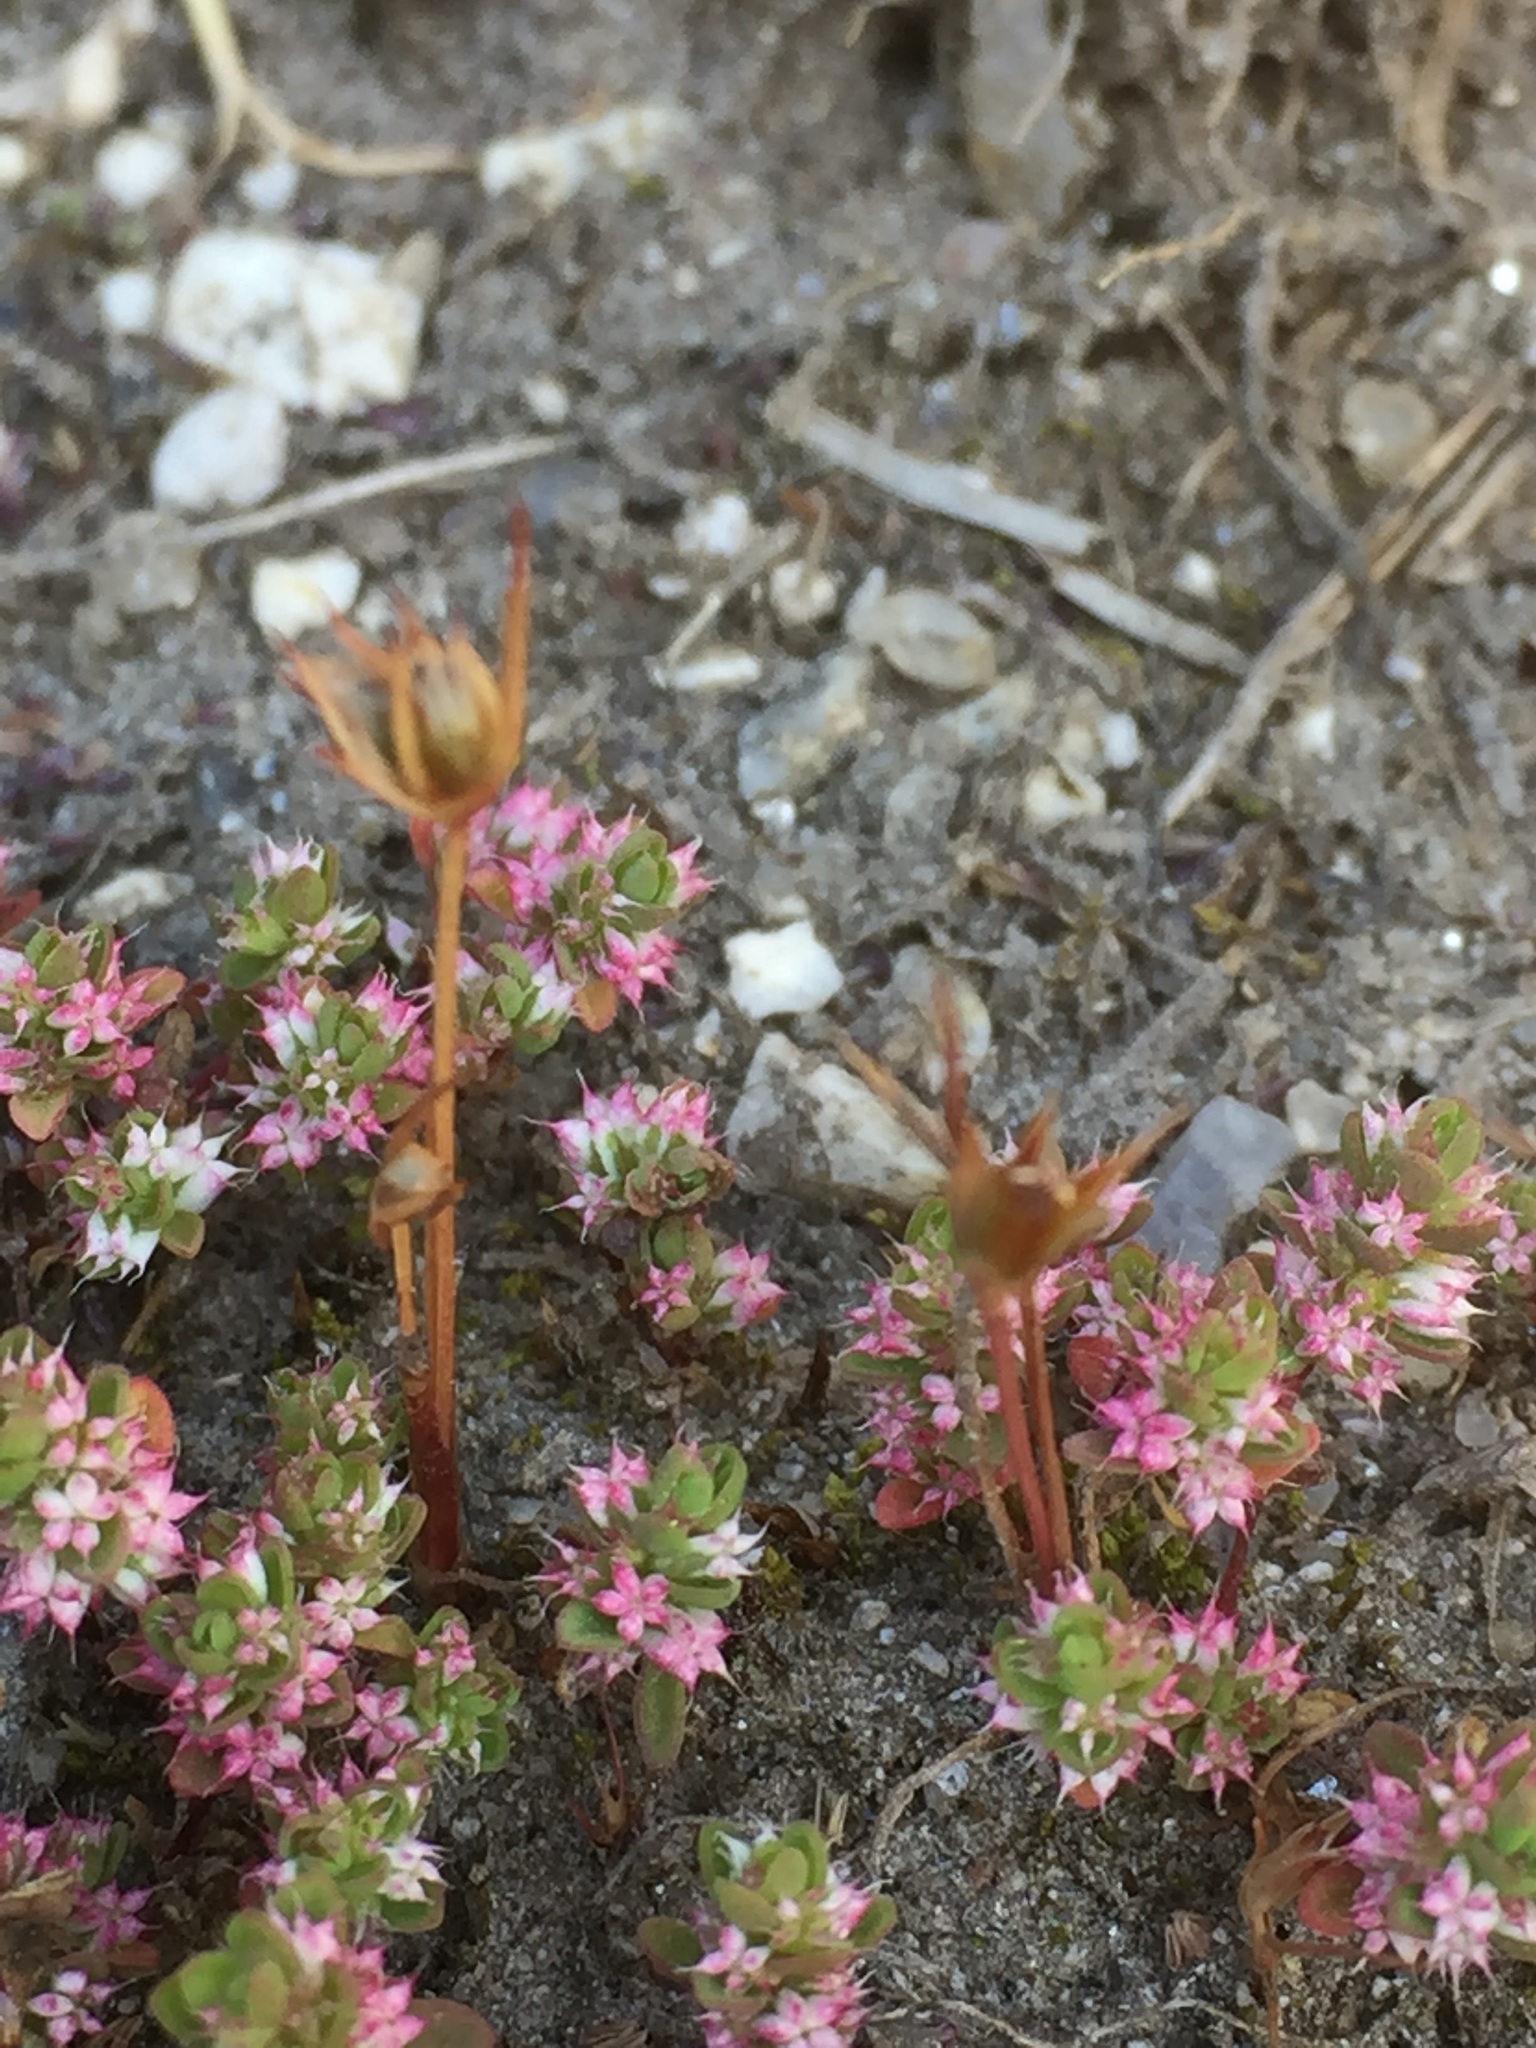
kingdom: Plantae
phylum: Tracheophyta
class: Liliopsida
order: Poales
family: Juncaceae
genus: Juncus
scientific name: Juncus capitatus
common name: Dwarf rush
